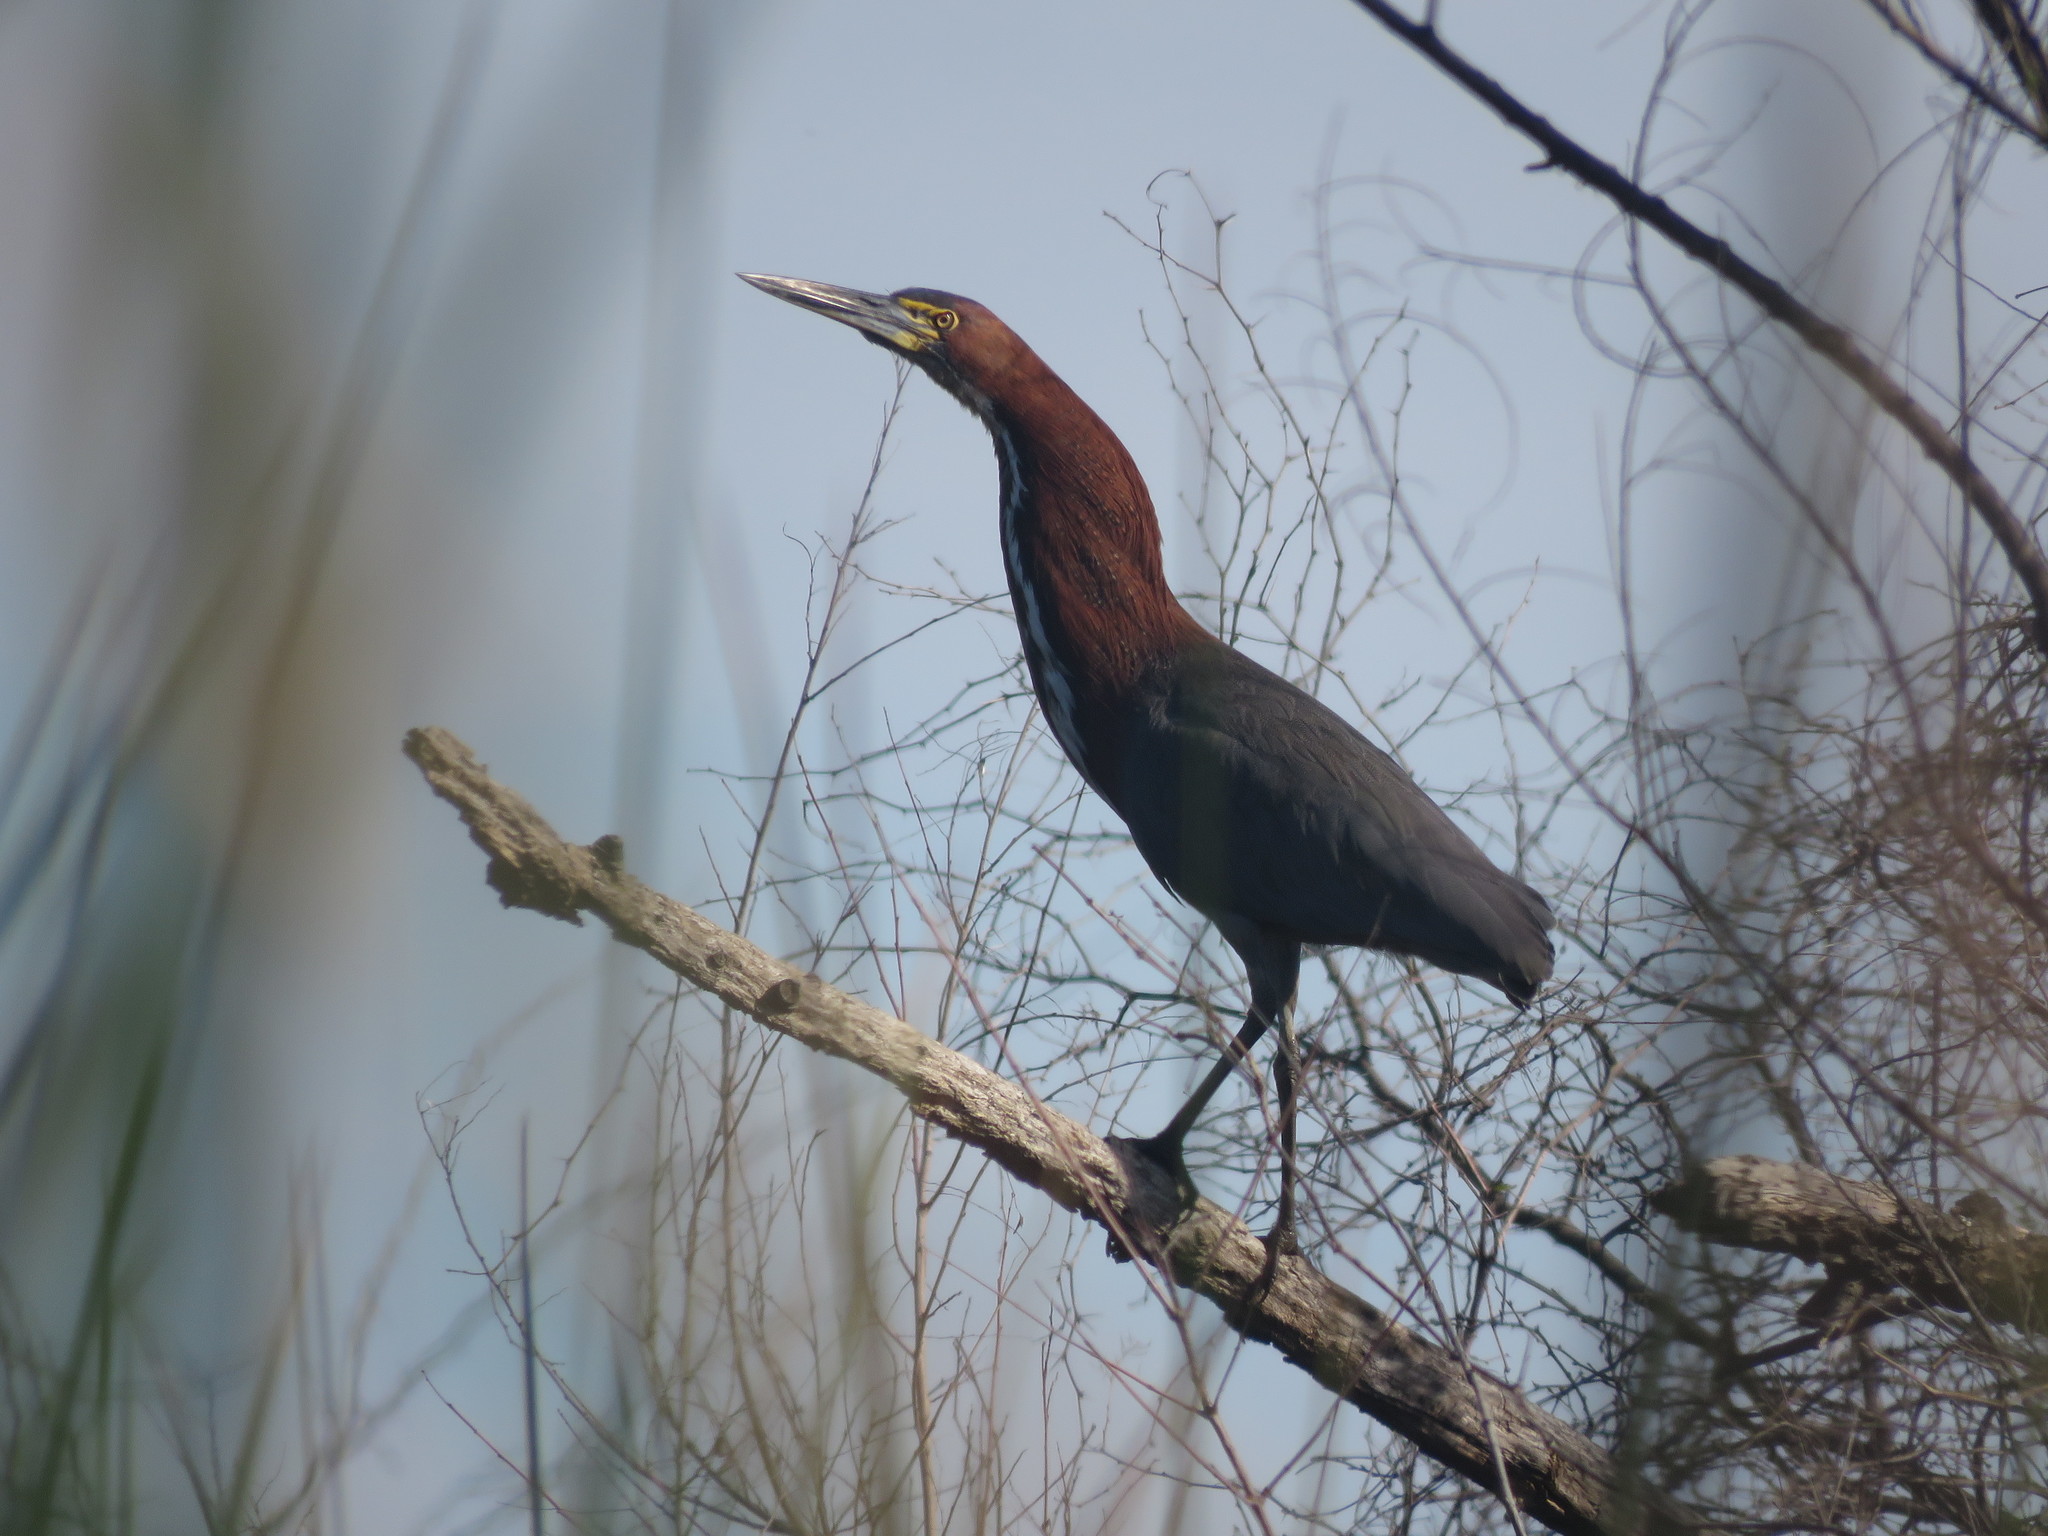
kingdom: Animalia
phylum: Chordata
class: Aves
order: Pelecaniformes
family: Ardeidae
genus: Tigrisoma
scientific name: Tigrisoma lineatum
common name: Rufescent tiger-heron
